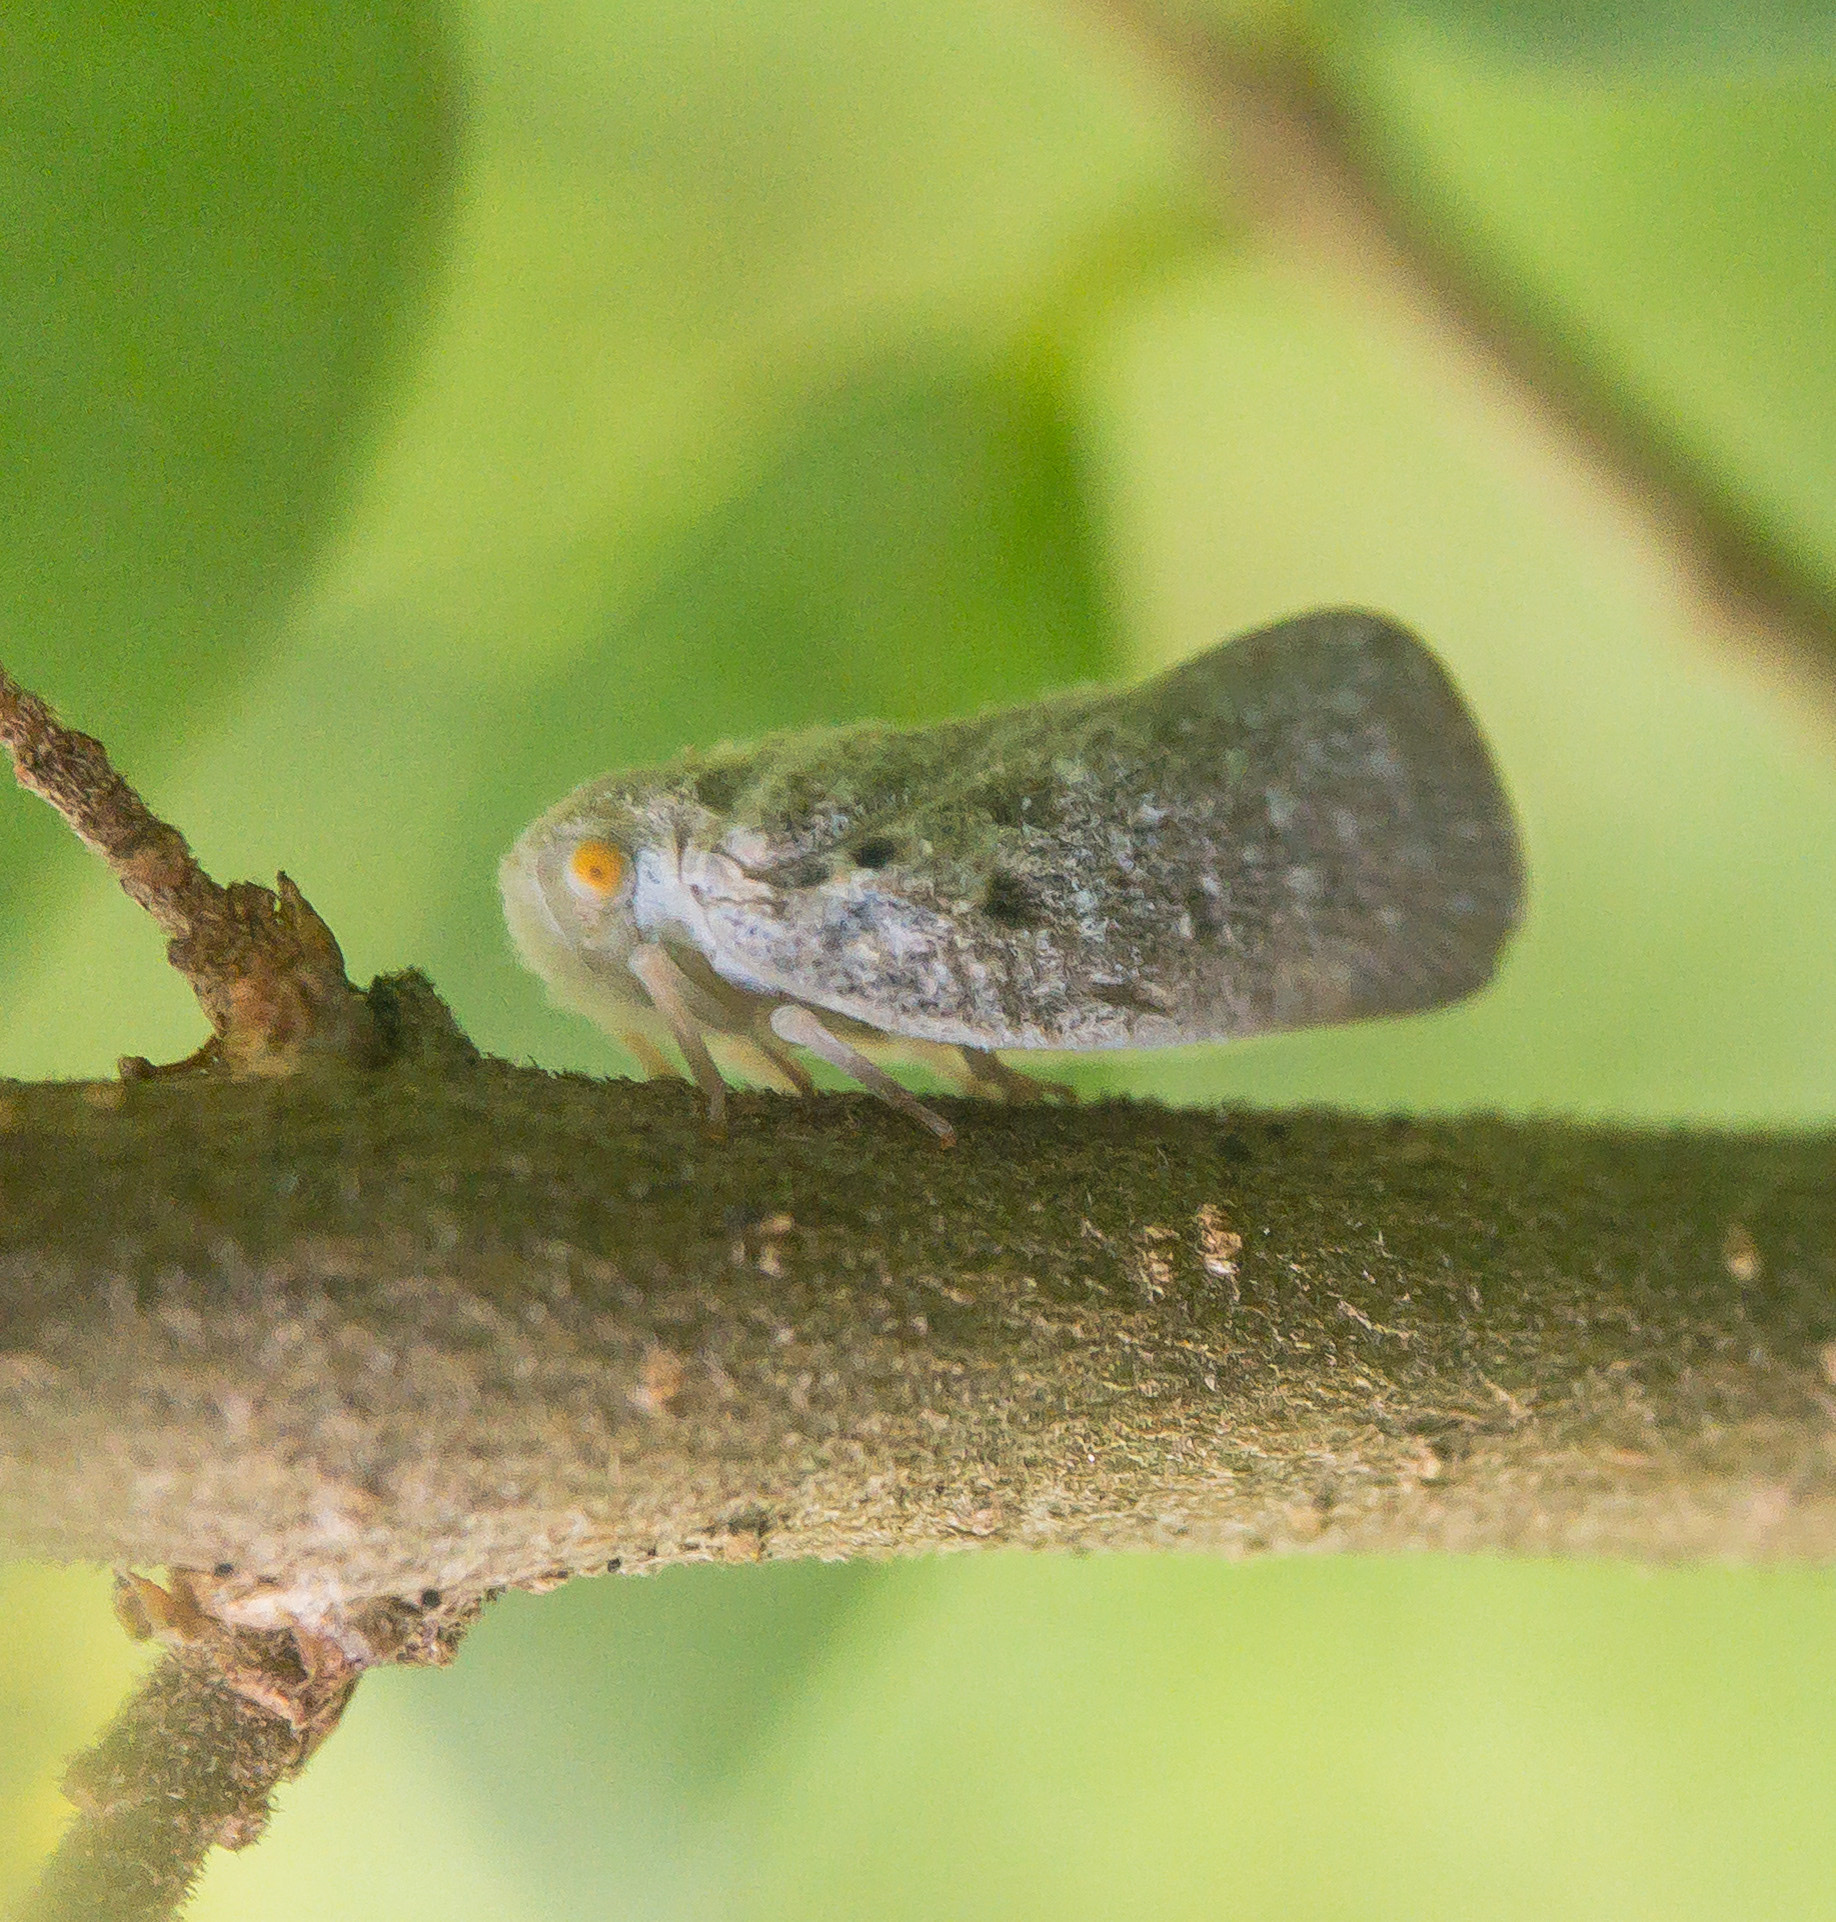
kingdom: Animalia
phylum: Arthropoda
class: Insecta
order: Hemiptera
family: Flatidae
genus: Metcalfa
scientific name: Metcalfa pruinosa
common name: Citrus flatid planthopper
